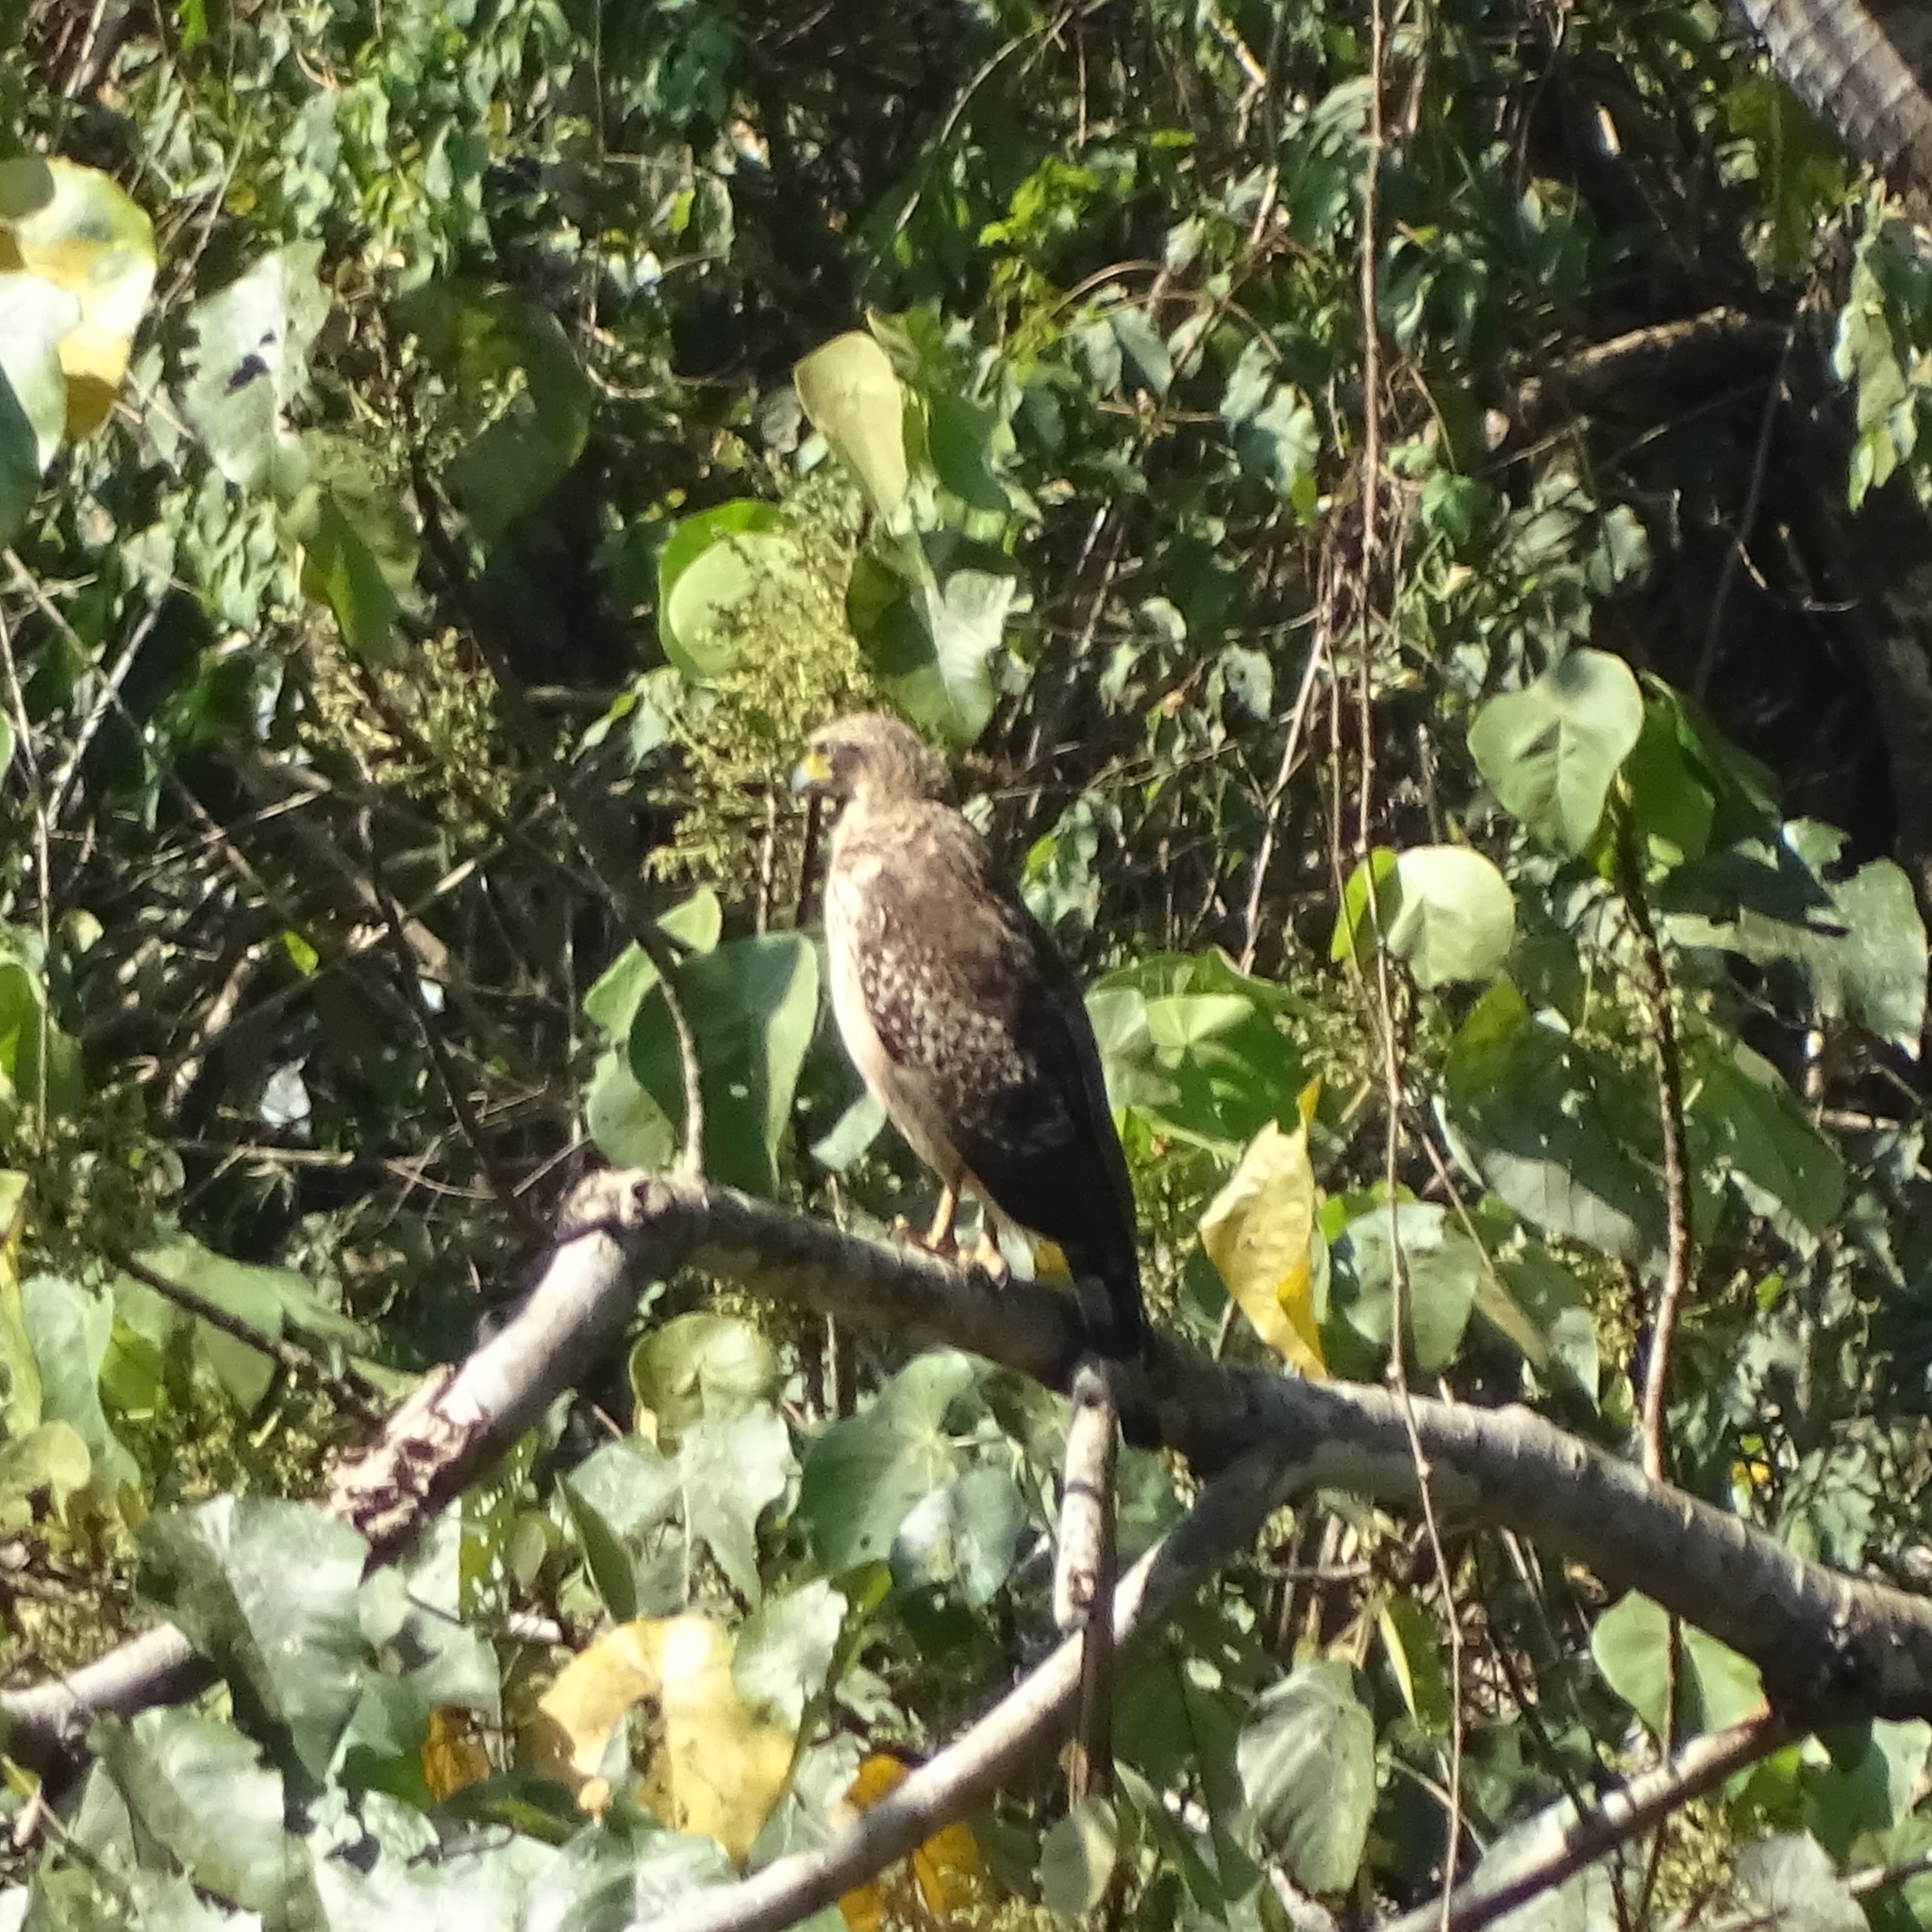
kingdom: Animalia
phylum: Chordata
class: Aves
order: Accipitriformes
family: Accipitridae
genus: Spilornis
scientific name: Spilornis cheela
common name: Crested serpent eagle
